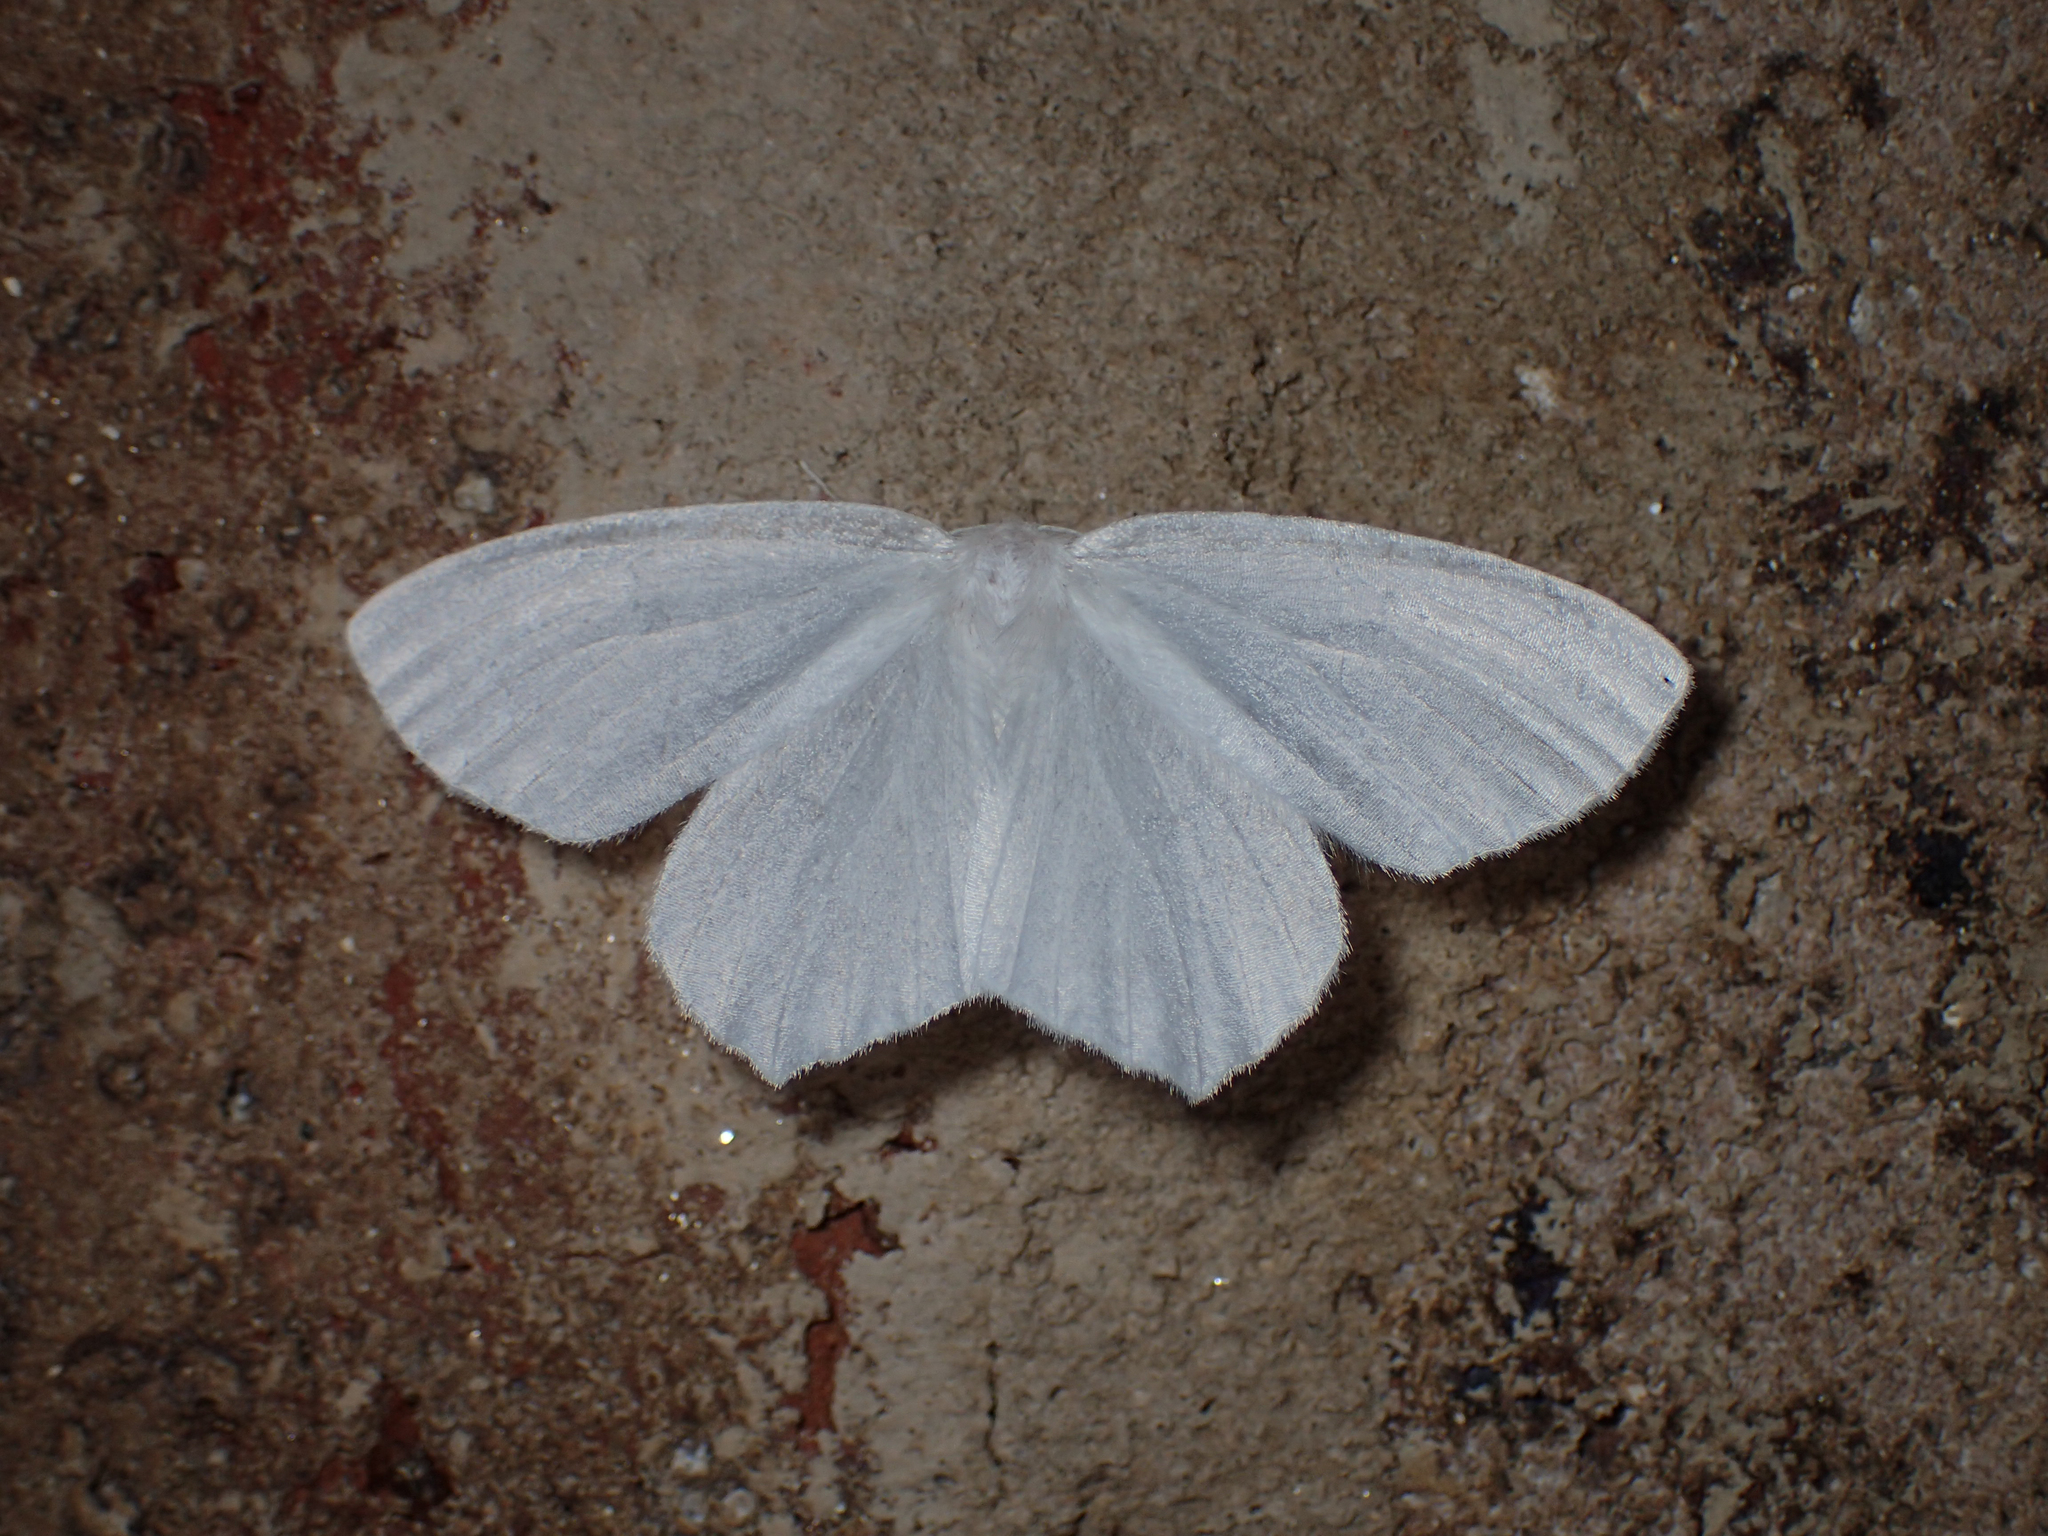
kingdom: Animalia
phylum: Arthropoda
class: Insecta
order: Lepidoptera
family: Geometridae
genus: Eugonobapta
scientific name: Eugonobapta nivosaria
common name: Snowy geometer
